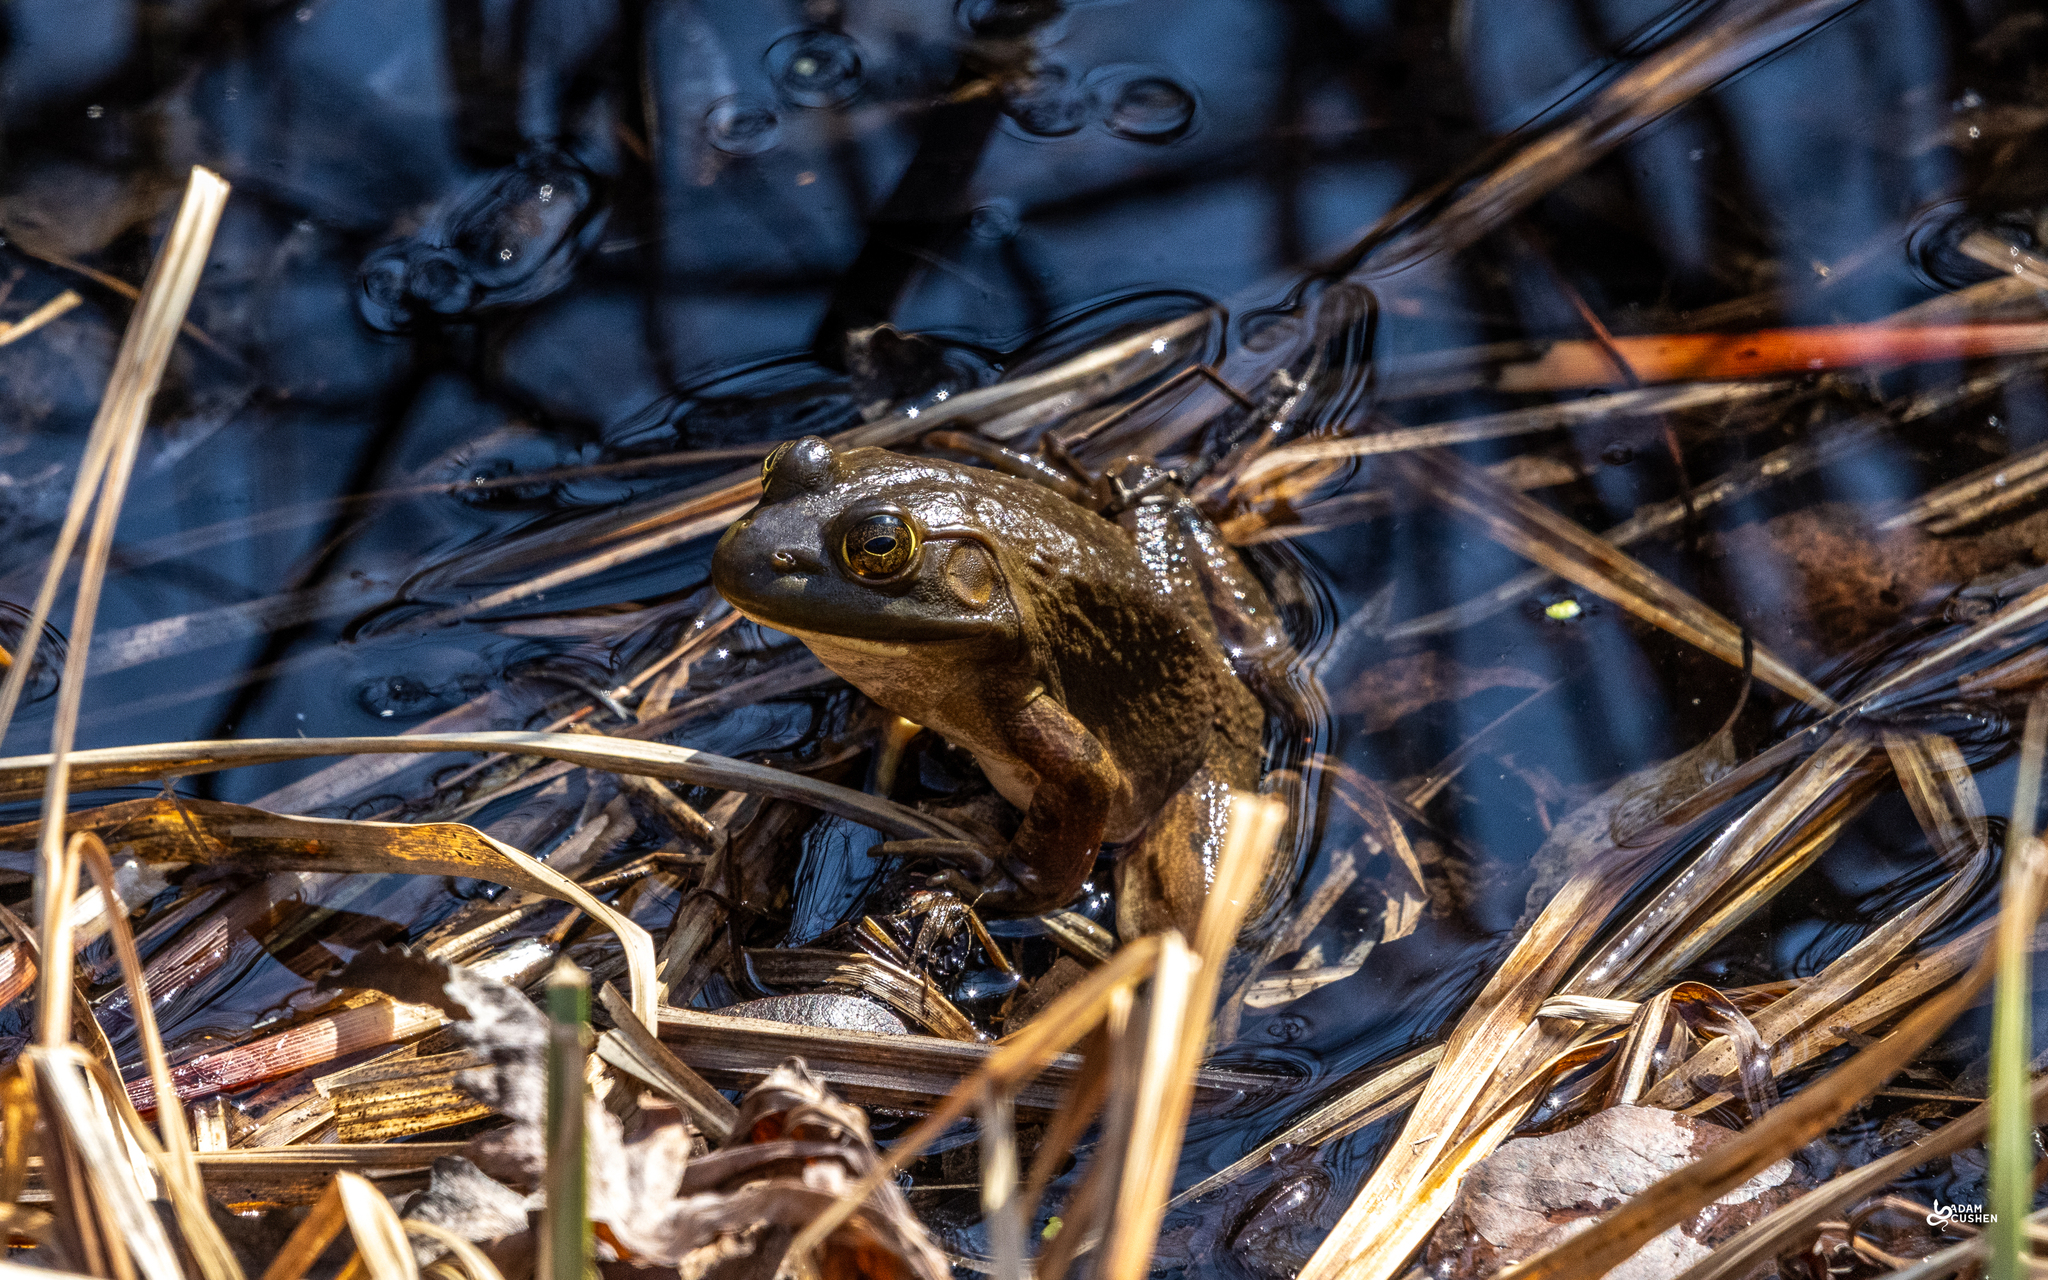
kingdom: Animalia
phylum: Chordata
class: Amphibia
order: Anura
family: Ranidae
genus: Lithobates
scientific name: Lithobates catesbeianus
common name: American bullfrog
